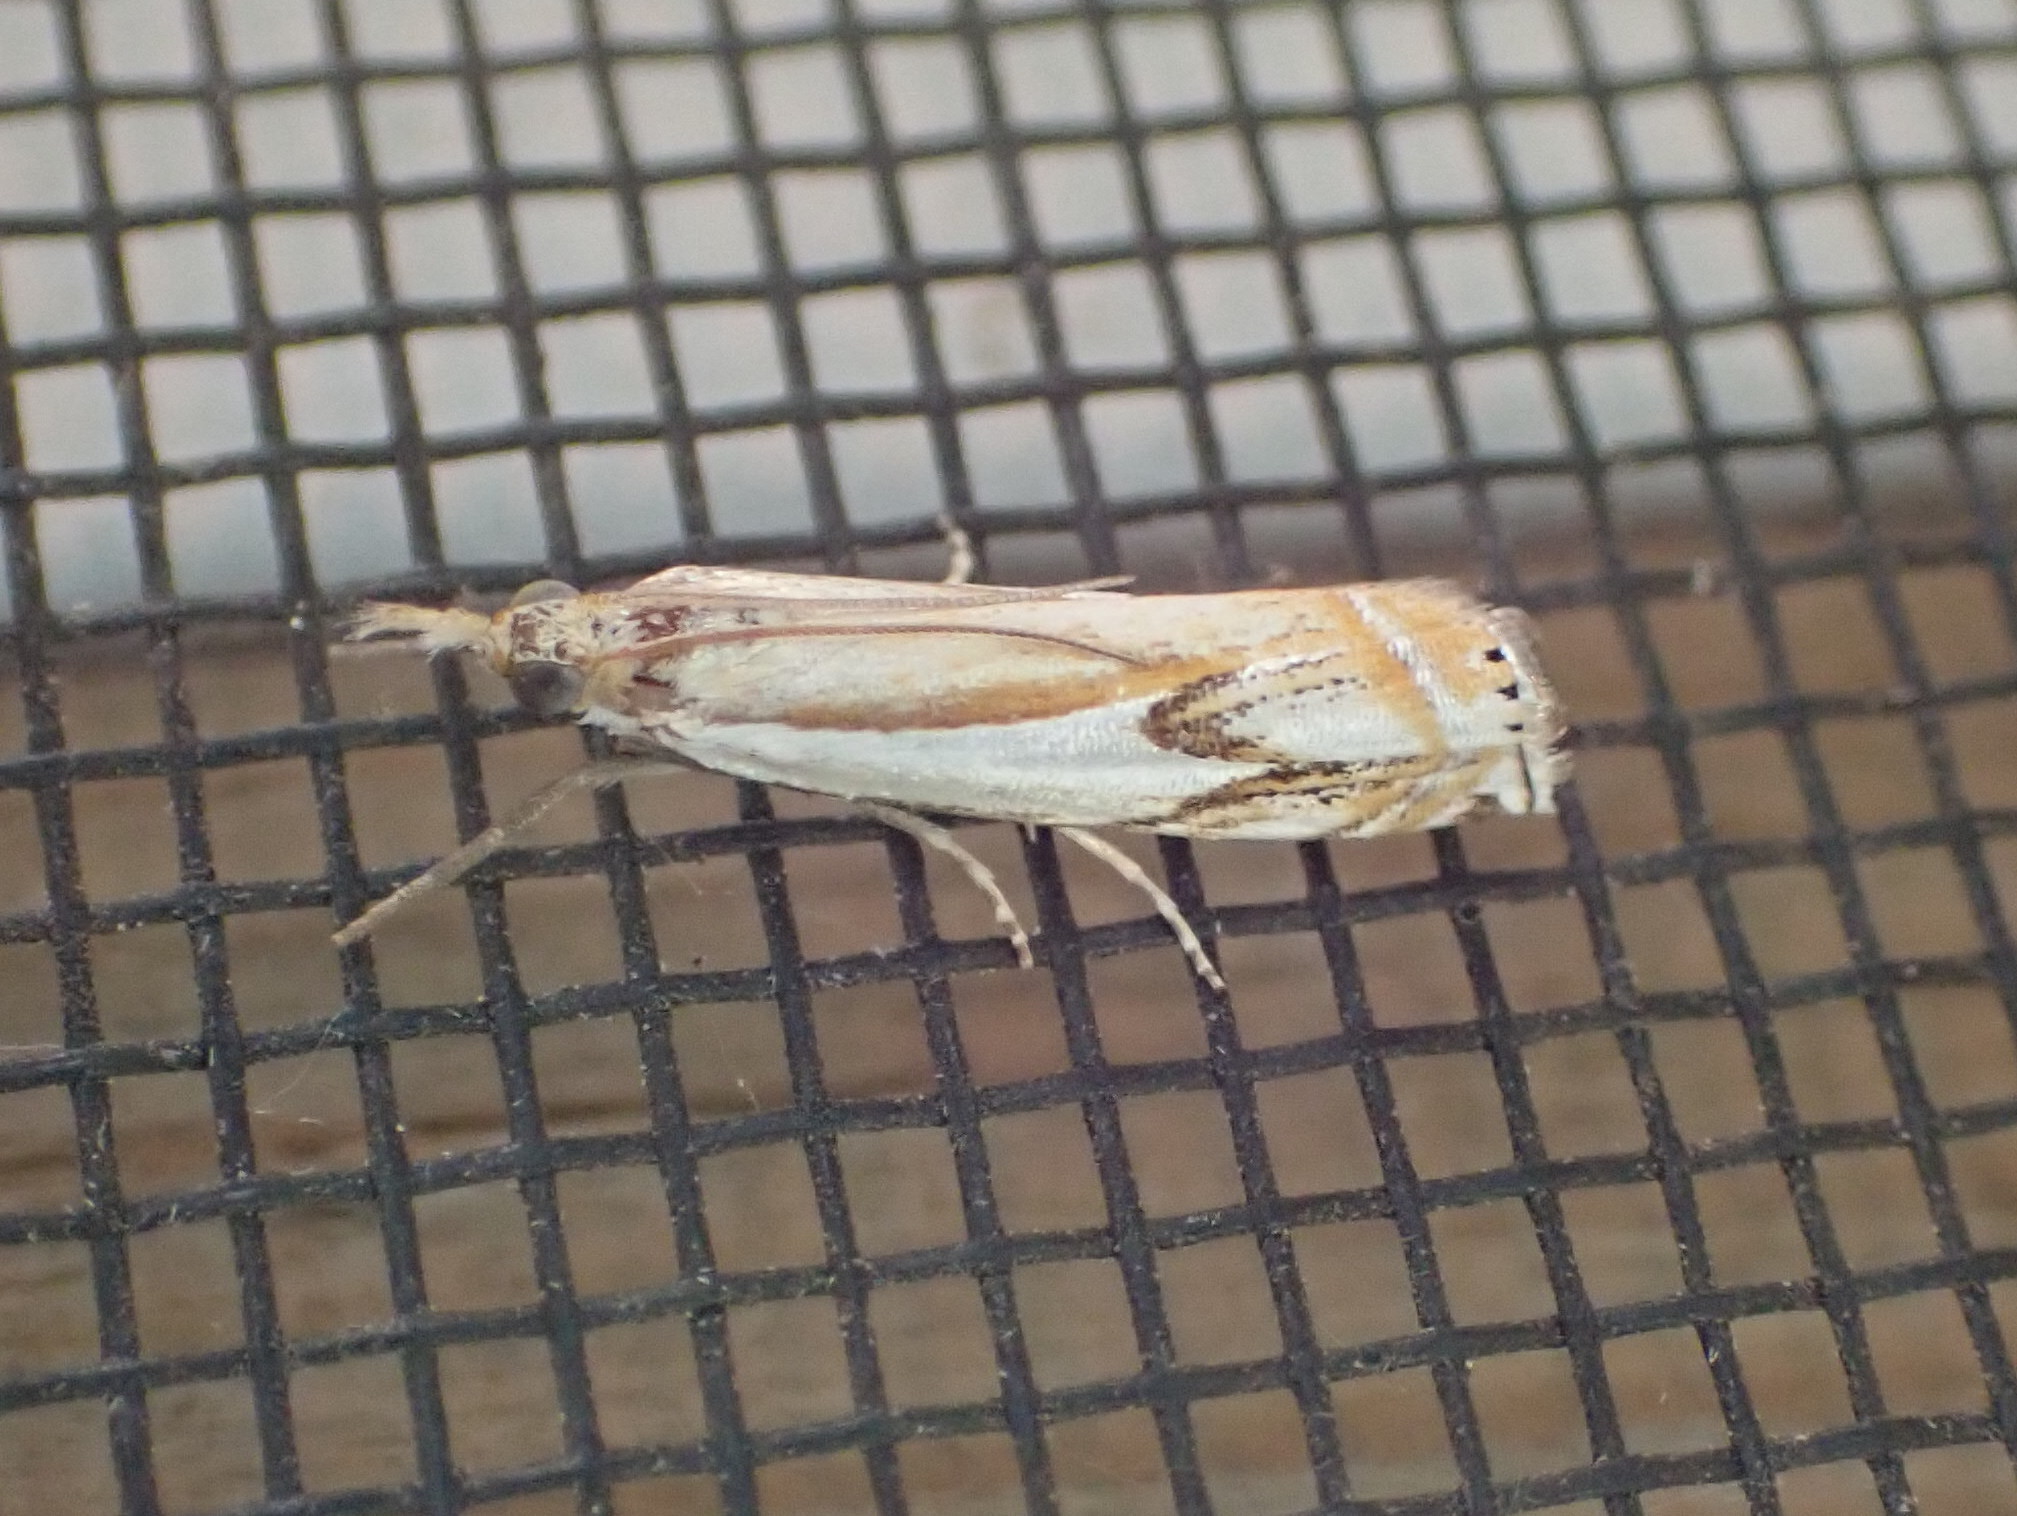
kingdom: Animalia
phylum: Arthropoda
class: Insecta
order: Lepidoptera
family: Crambidae
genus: Crambus
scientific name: Crambus agitatellus
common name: Double-banded grass-veneer
